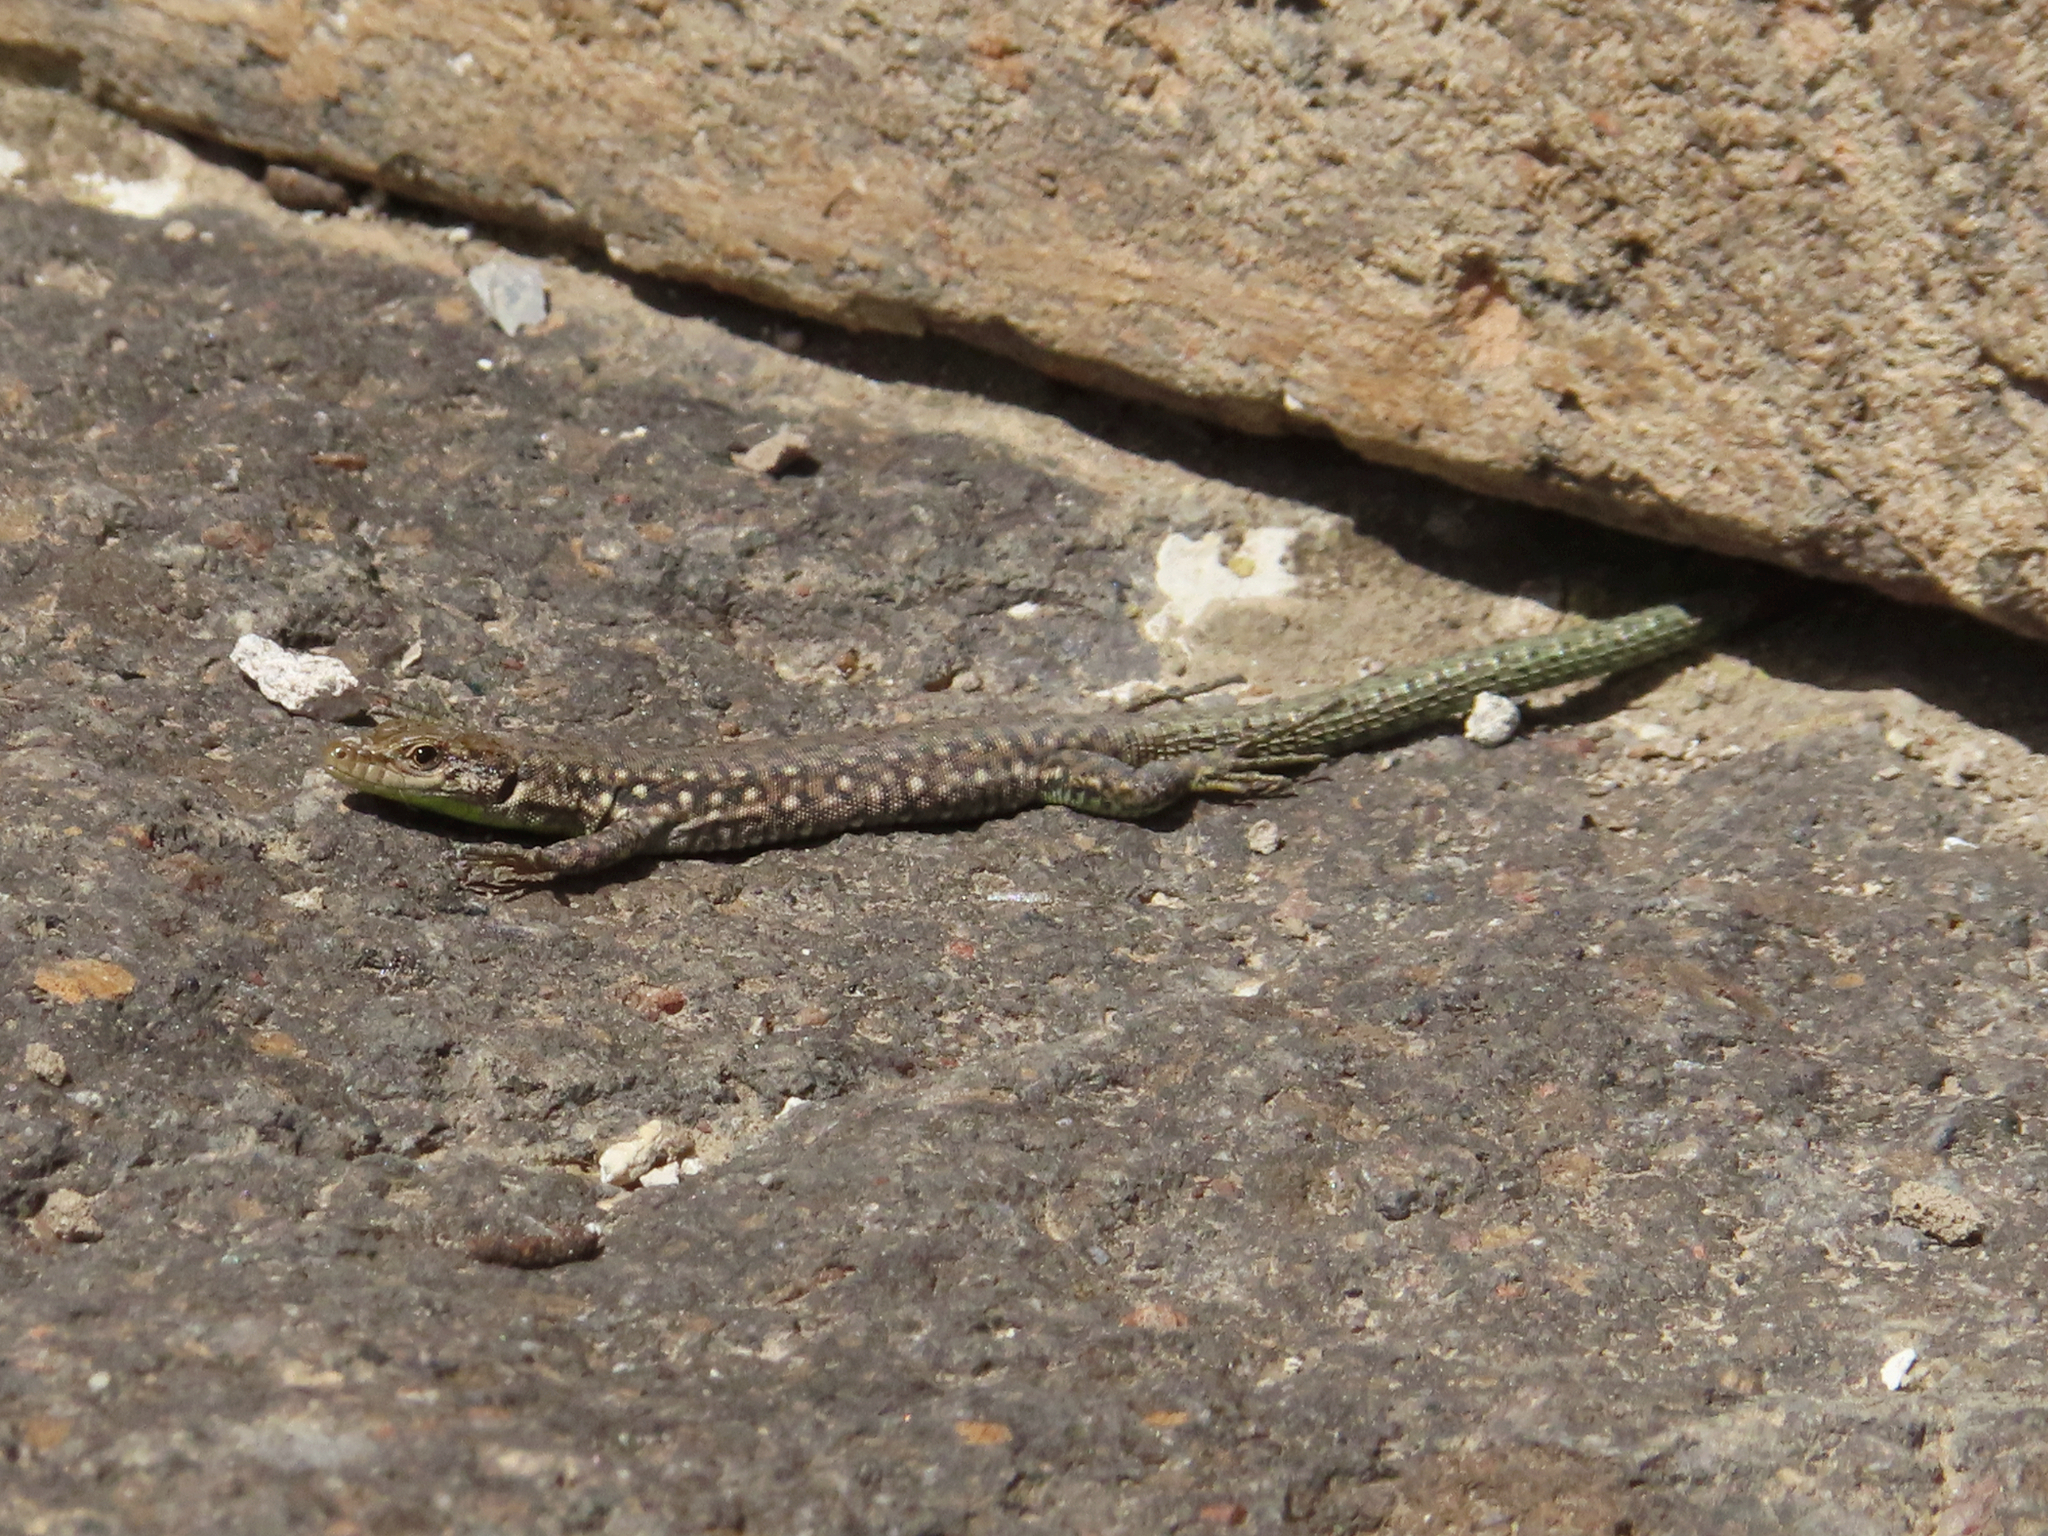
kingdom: Animalia
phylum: Chordata
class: Squamata
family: Lacertidae
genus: Darevskia
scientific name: Darevskia
